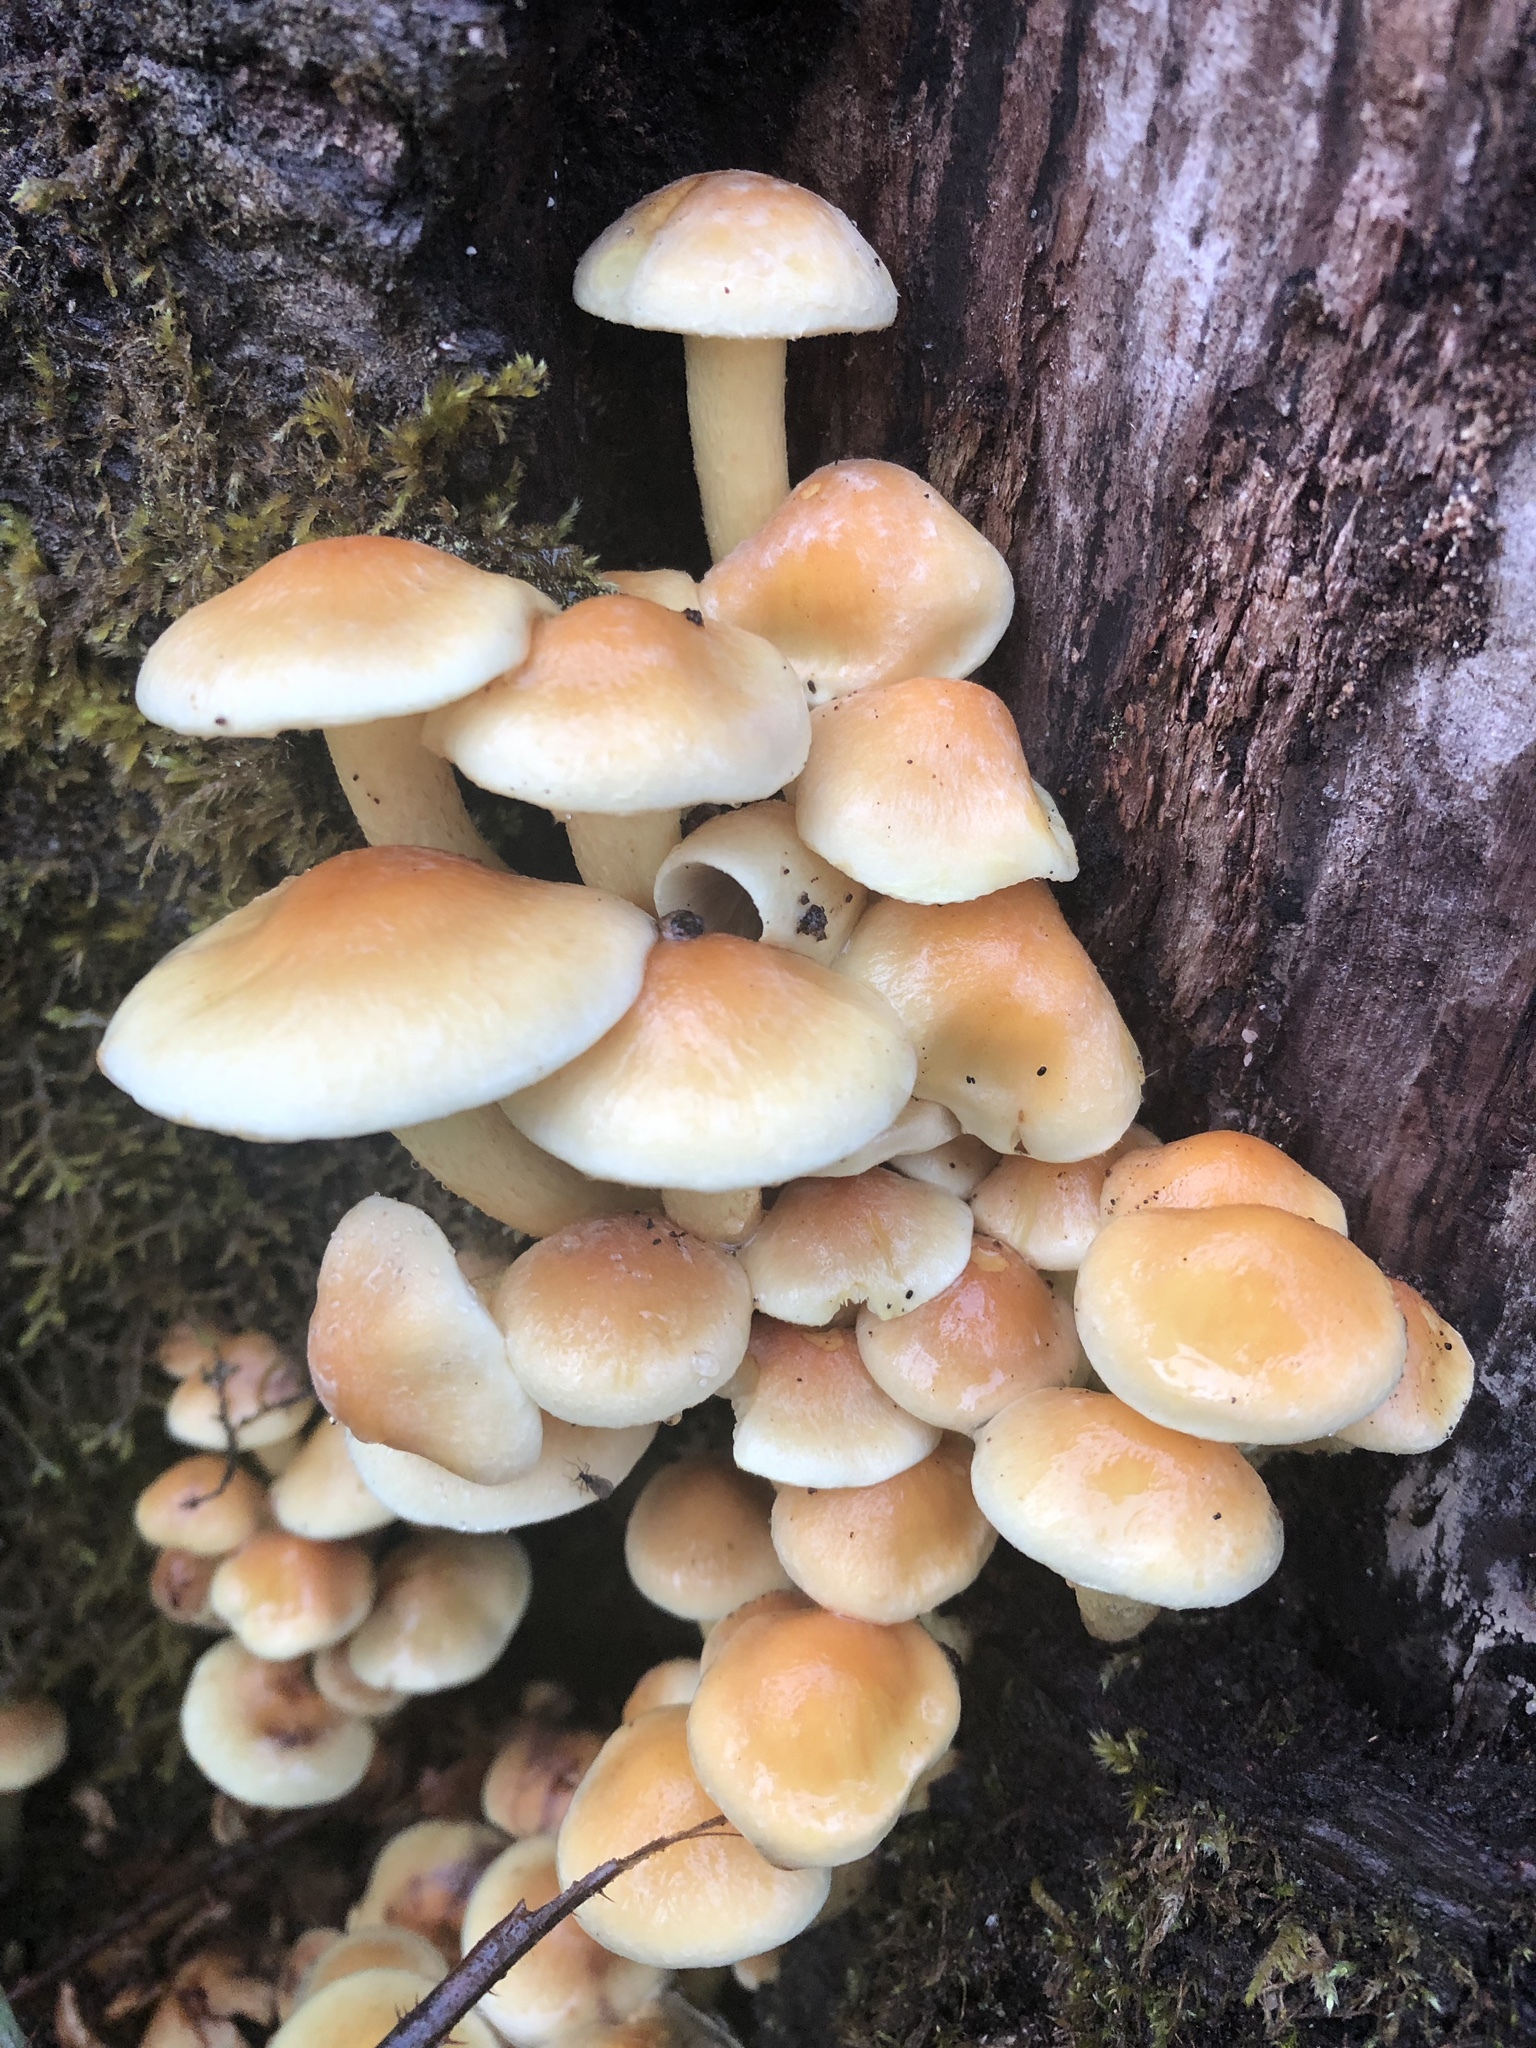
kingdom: Fungi
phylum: Basidiomycota
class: Agaricomycetes
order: Agaricales
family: Strophariaceae
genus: Hypholoma
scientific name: Hypholoma fasciculare
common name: Sulphur tuft
